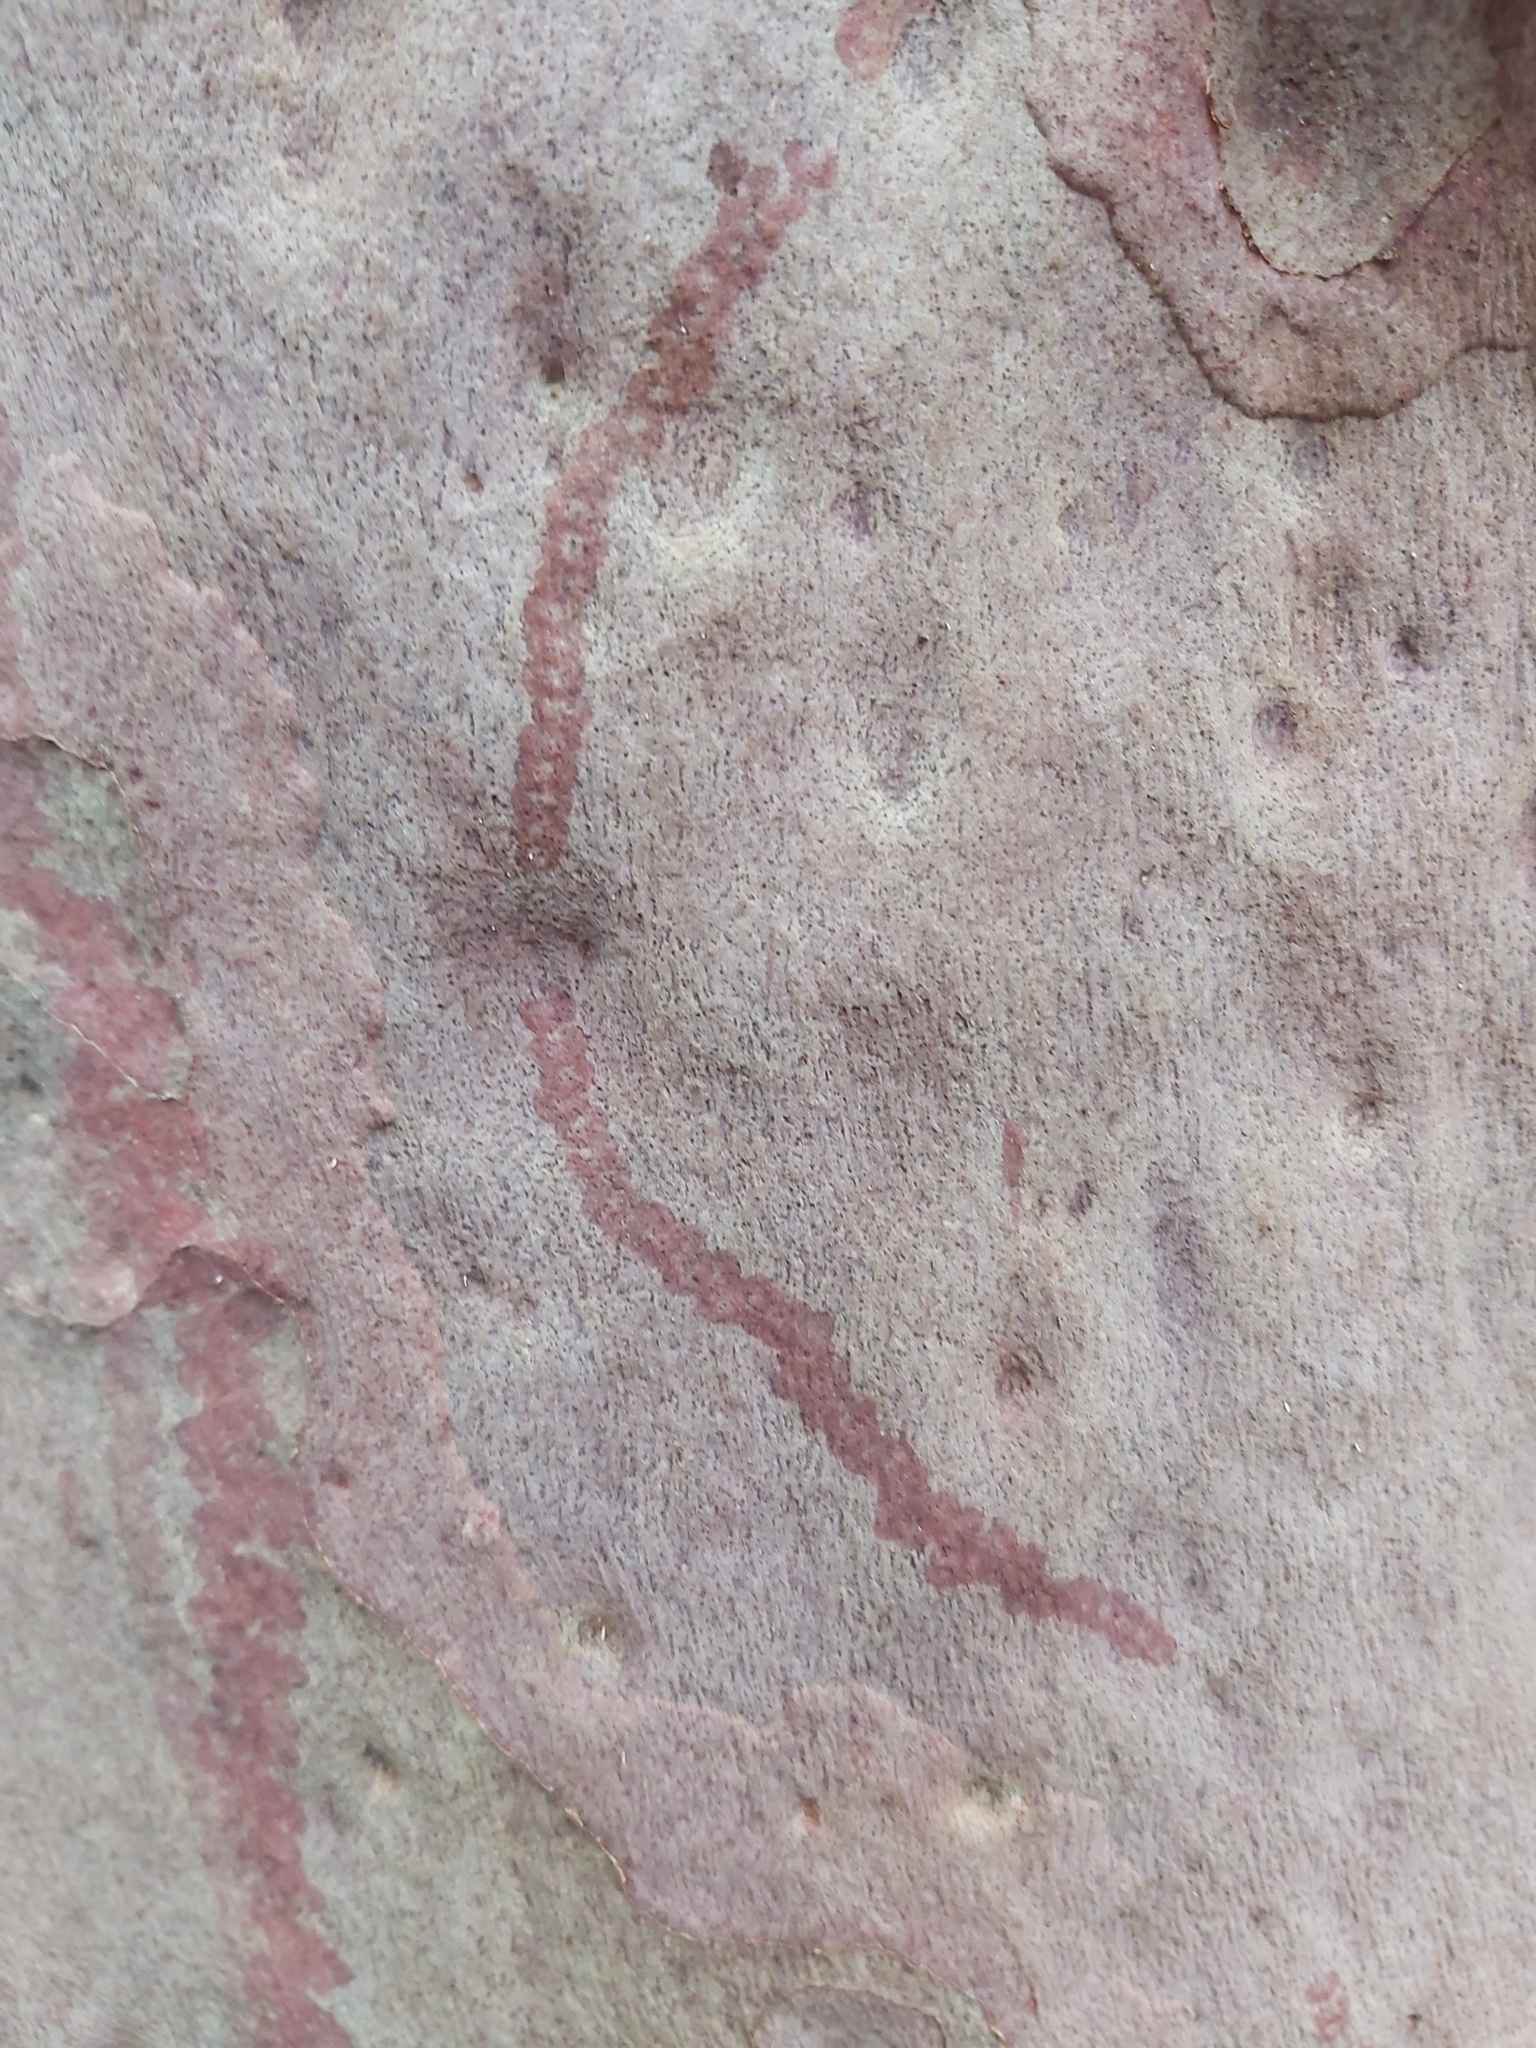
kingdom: Animalia
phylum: Mollusca
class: Gastropoda
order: Stylommatophora
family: Athoracophoridae
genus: Triboniophorus
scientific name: Triboniophorus graeffei
